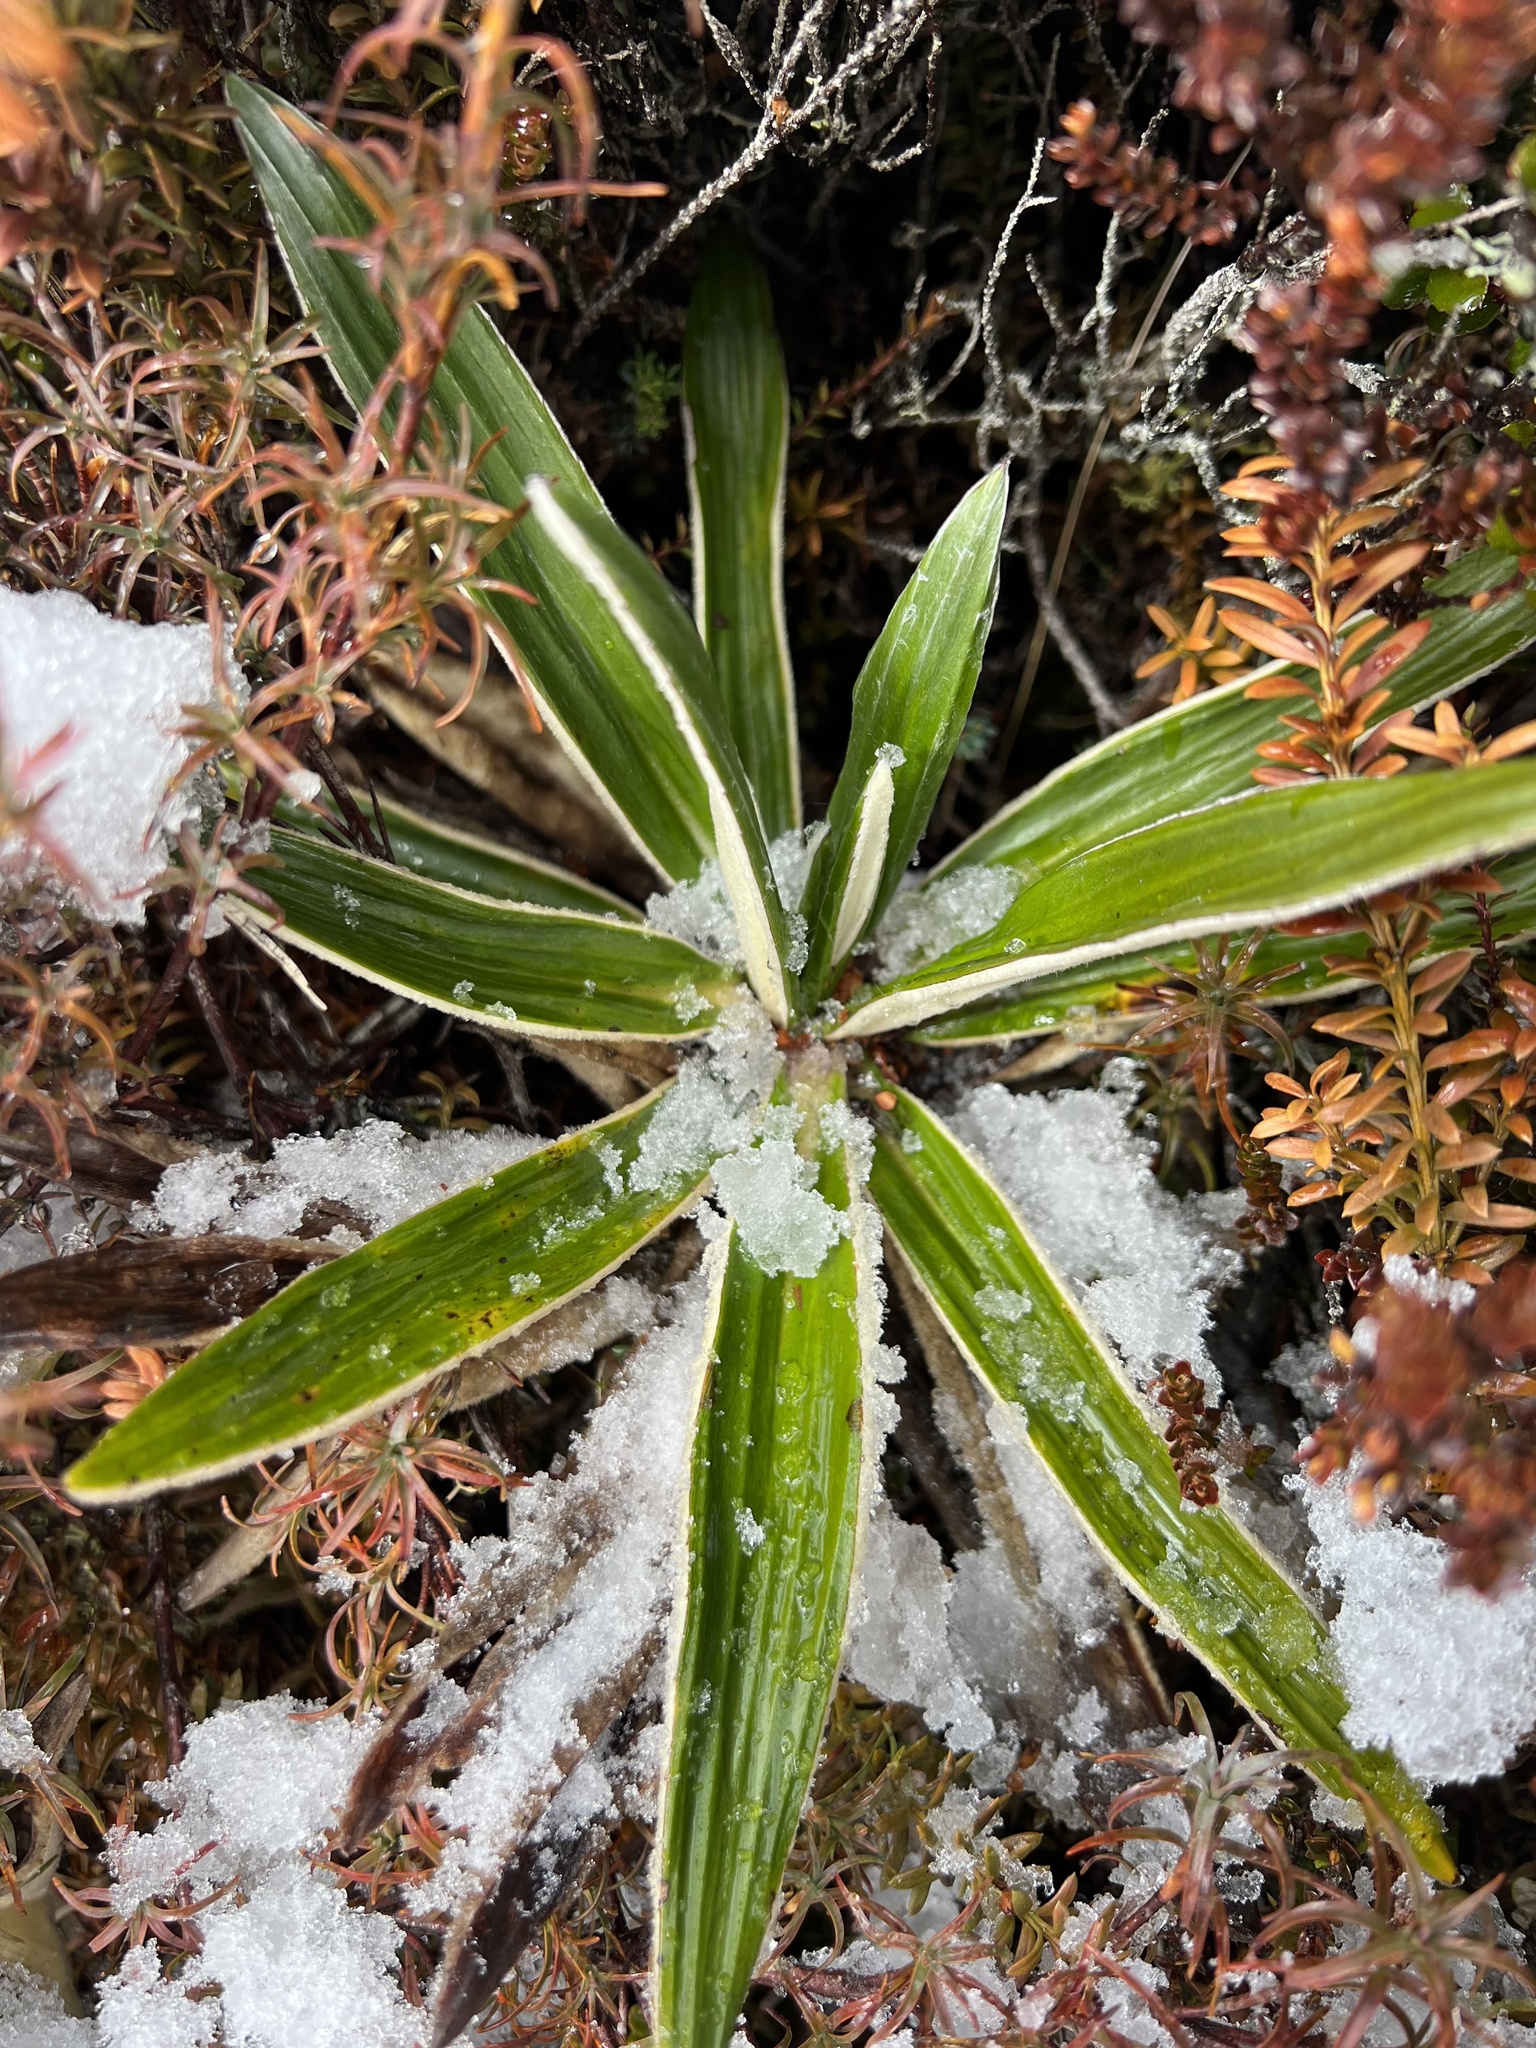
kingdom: Plantae
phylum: Tracheophyta
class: Magnoliopsida
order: Asterales
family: Asteraceae
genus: Celmisia
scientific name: Celmisia spectabilis
